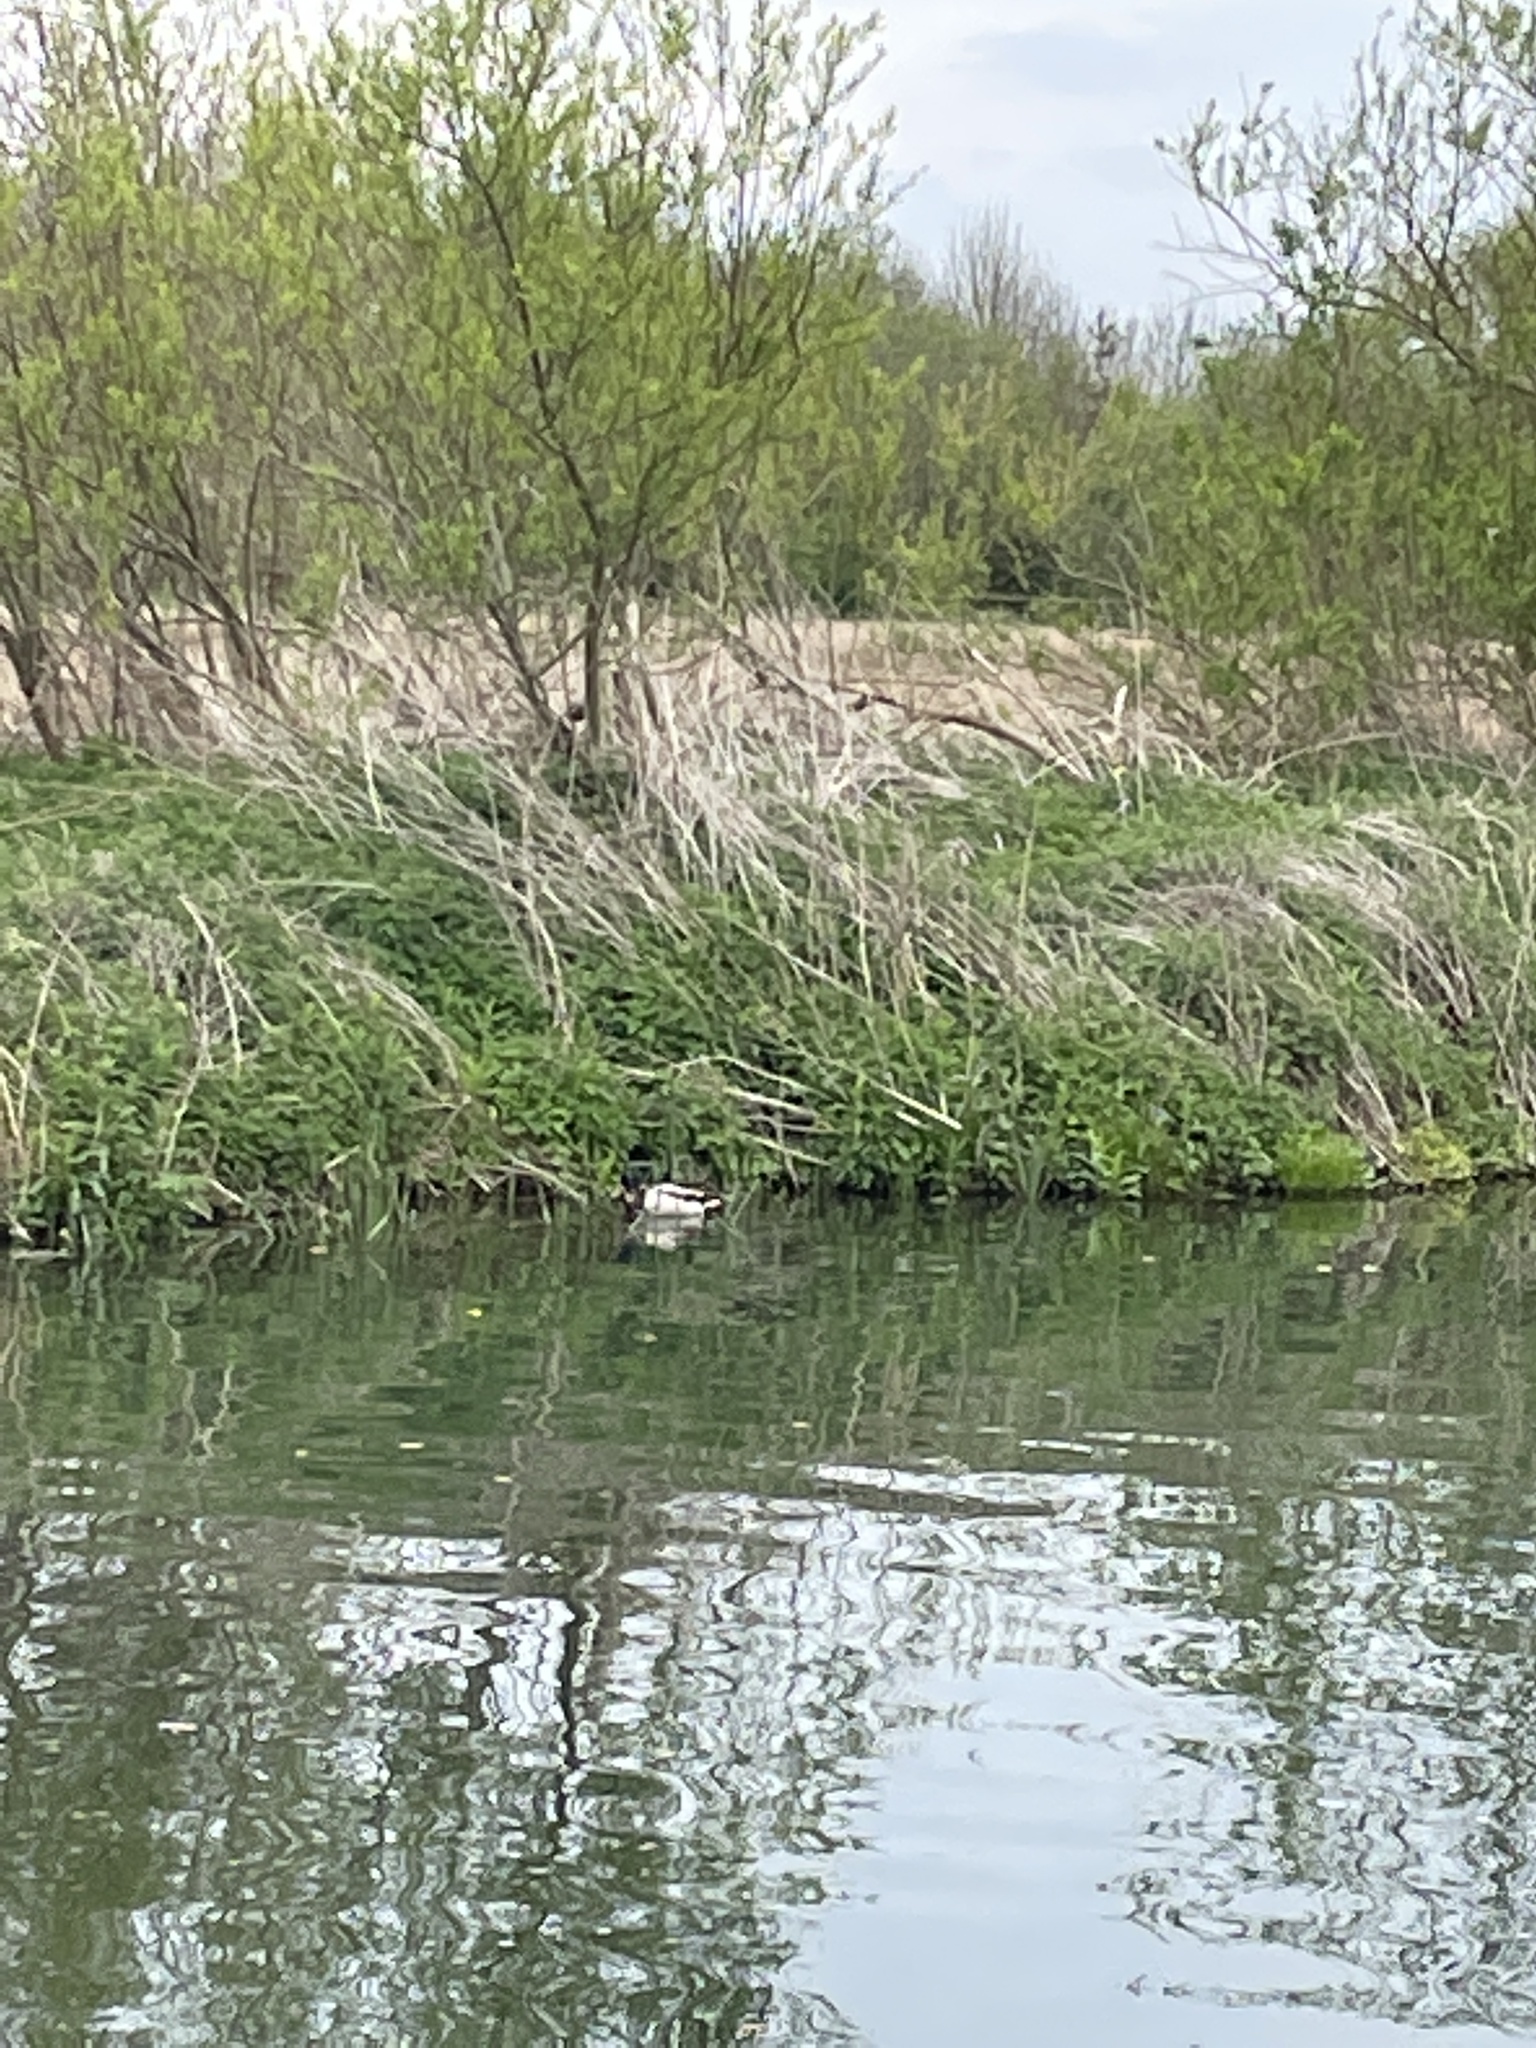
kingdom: Animalia
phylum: Chordata
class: Aves
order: Anseriformes
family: Anatidae
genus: Anas
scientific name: Anas platyrhynchos
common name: Mallard
